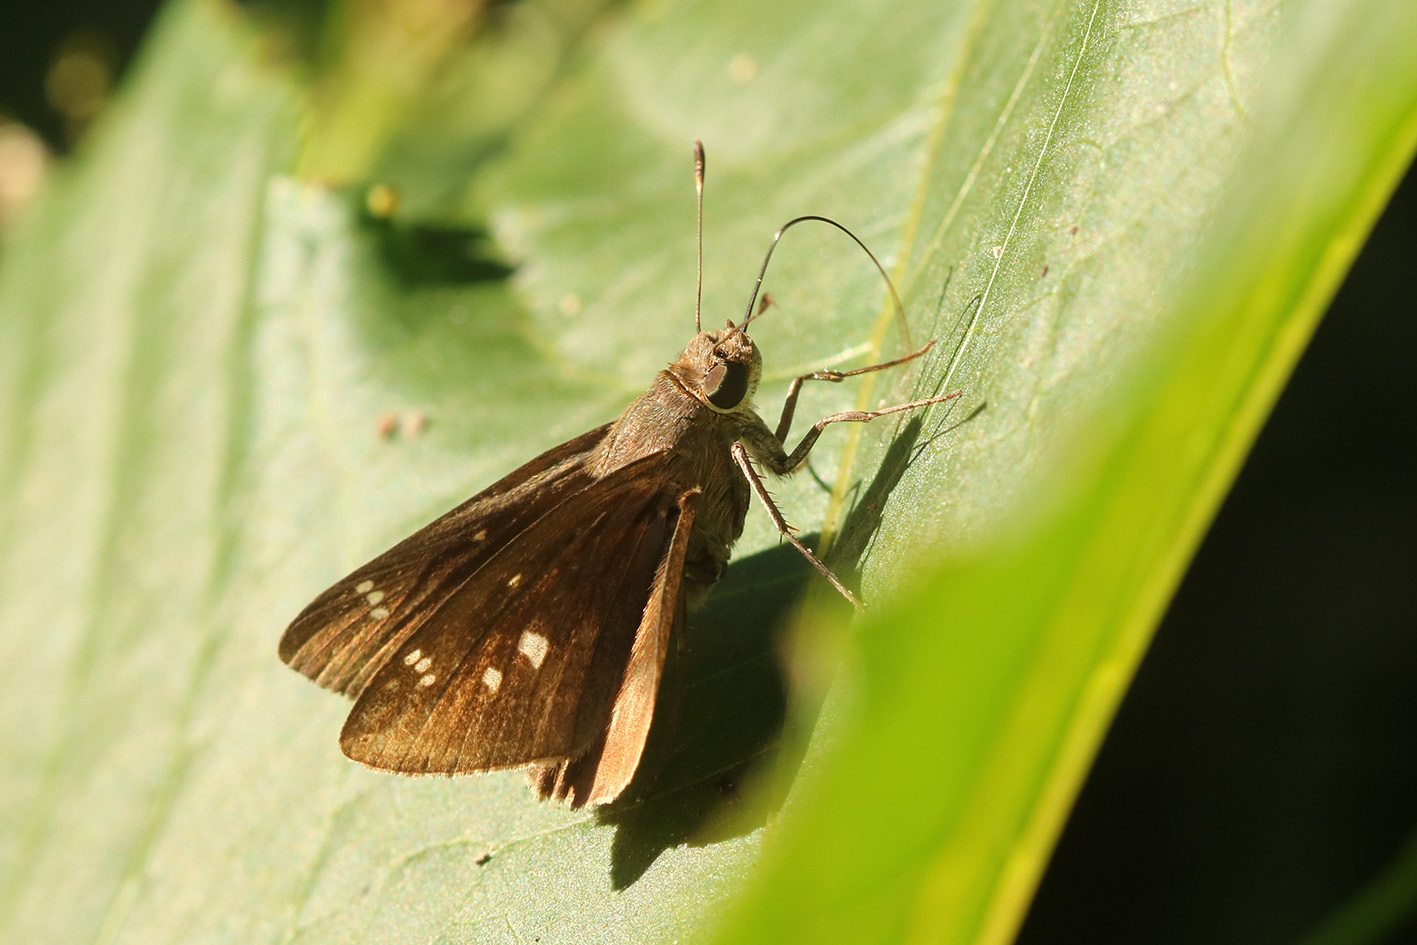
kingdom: Animalia
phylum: Arthropoda
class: Insecta
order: Lepidoptera
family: Hesperiidae
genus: Quinta
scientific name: Quinta cannae
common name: Canna skipper
